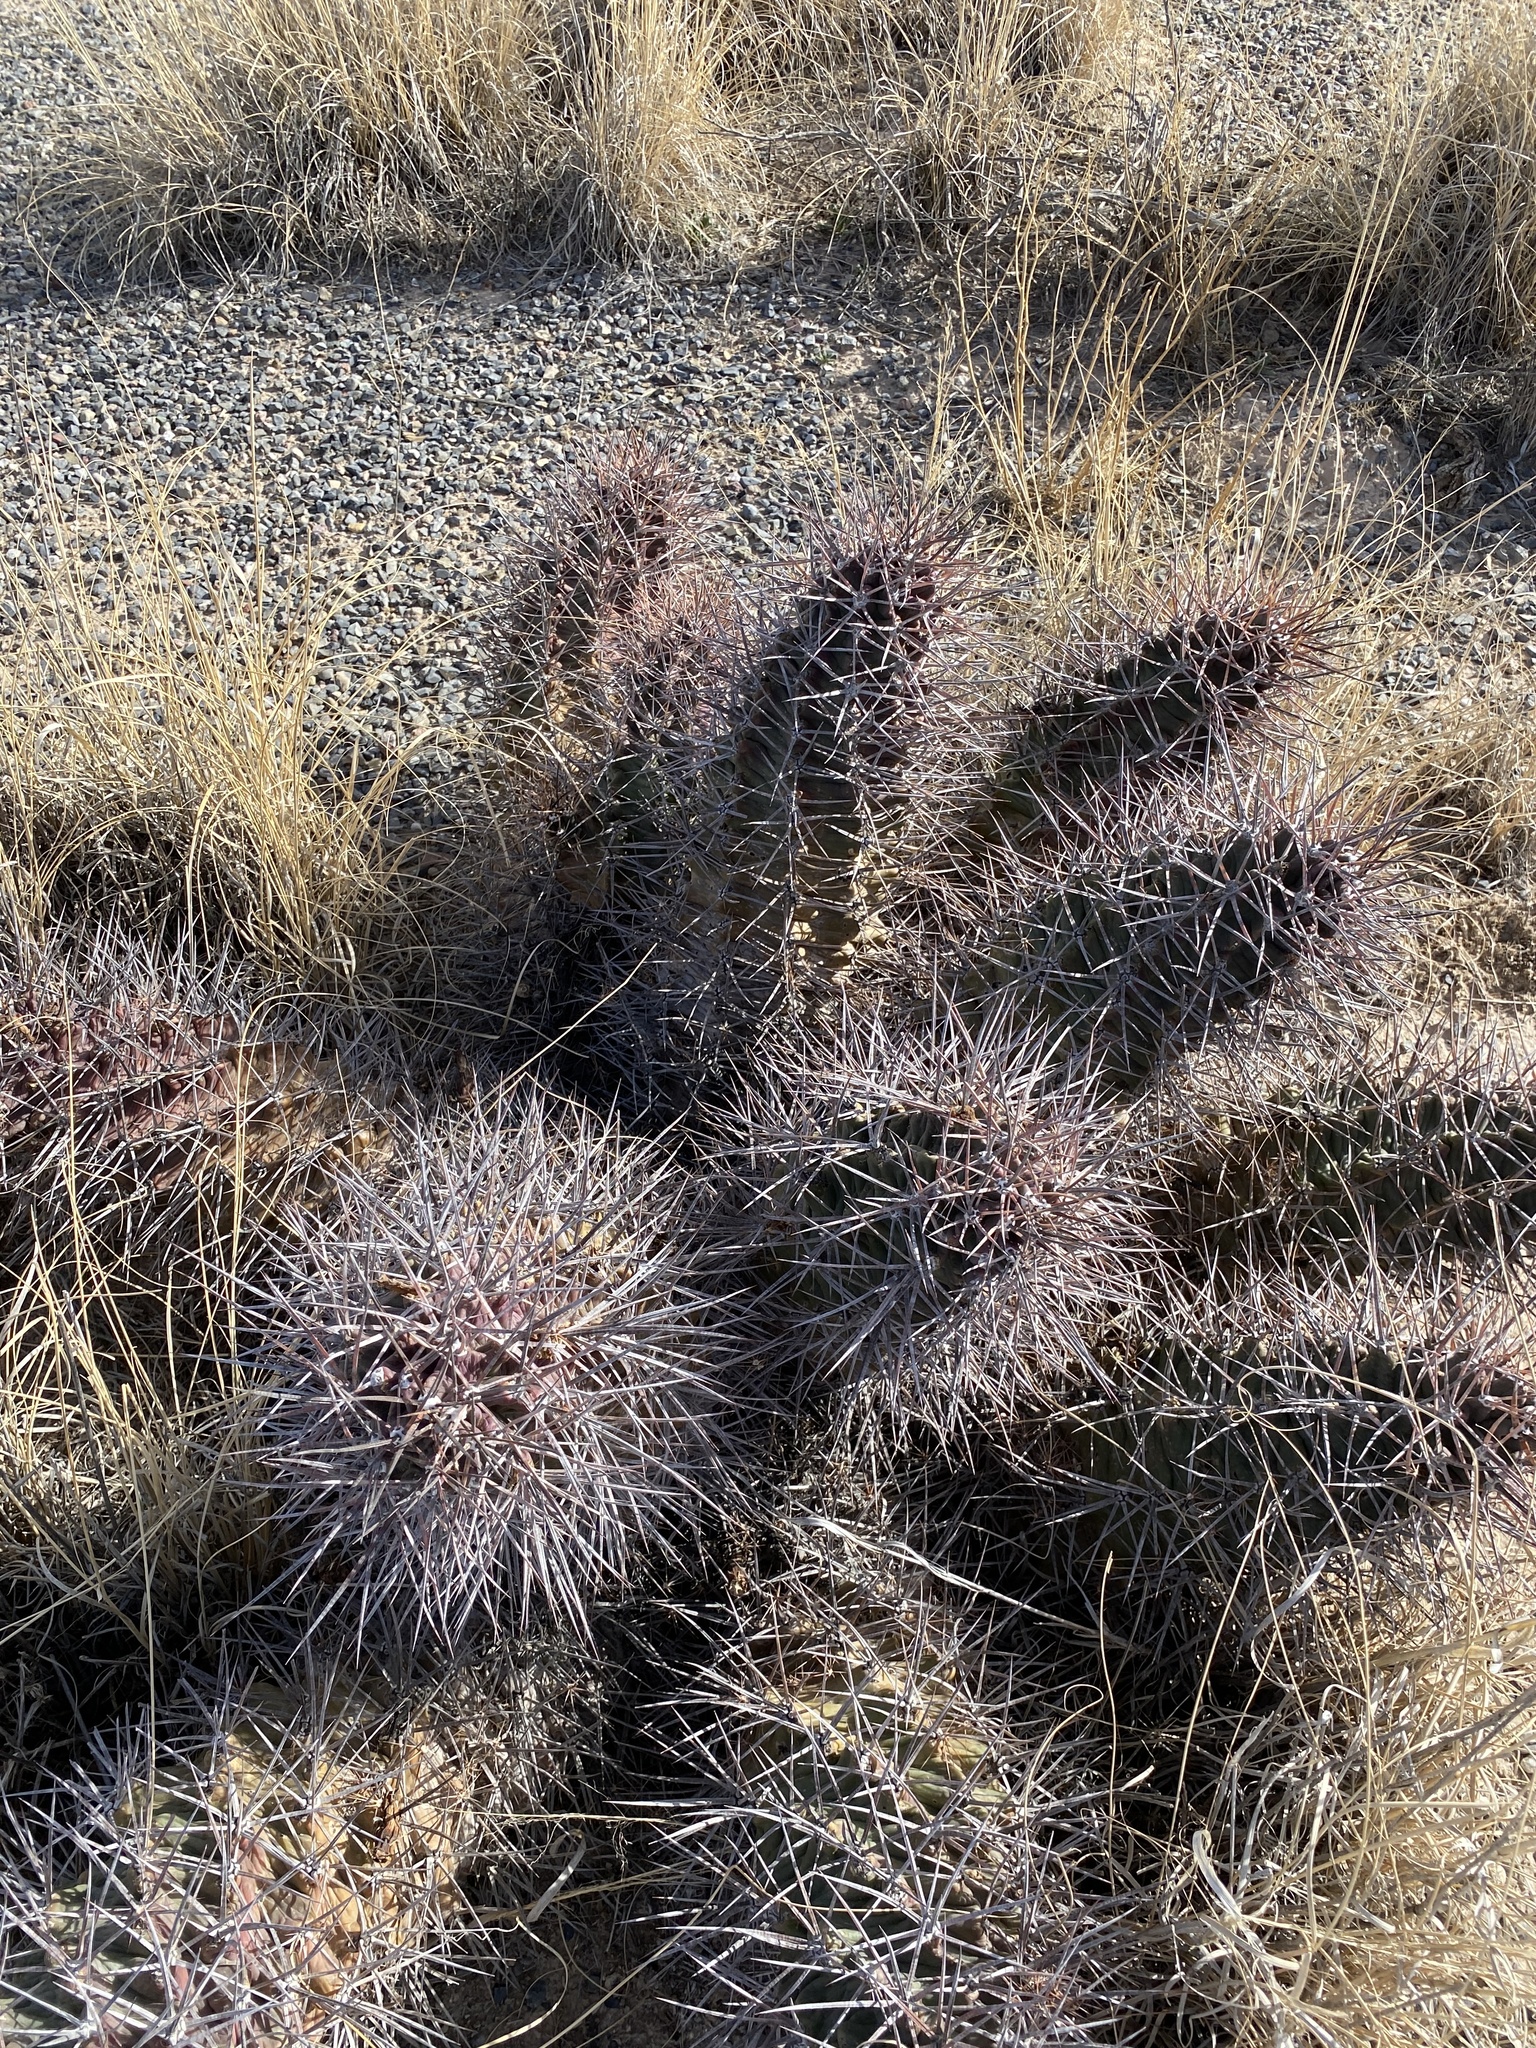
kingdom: Plantae
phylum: Tracheophyta
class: Magnoliopsida
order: Caryophyllales
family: Cactaceae
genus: Echinocereus
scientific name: Echinocereus triglochidiatus
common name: Claretcup hedgehog
